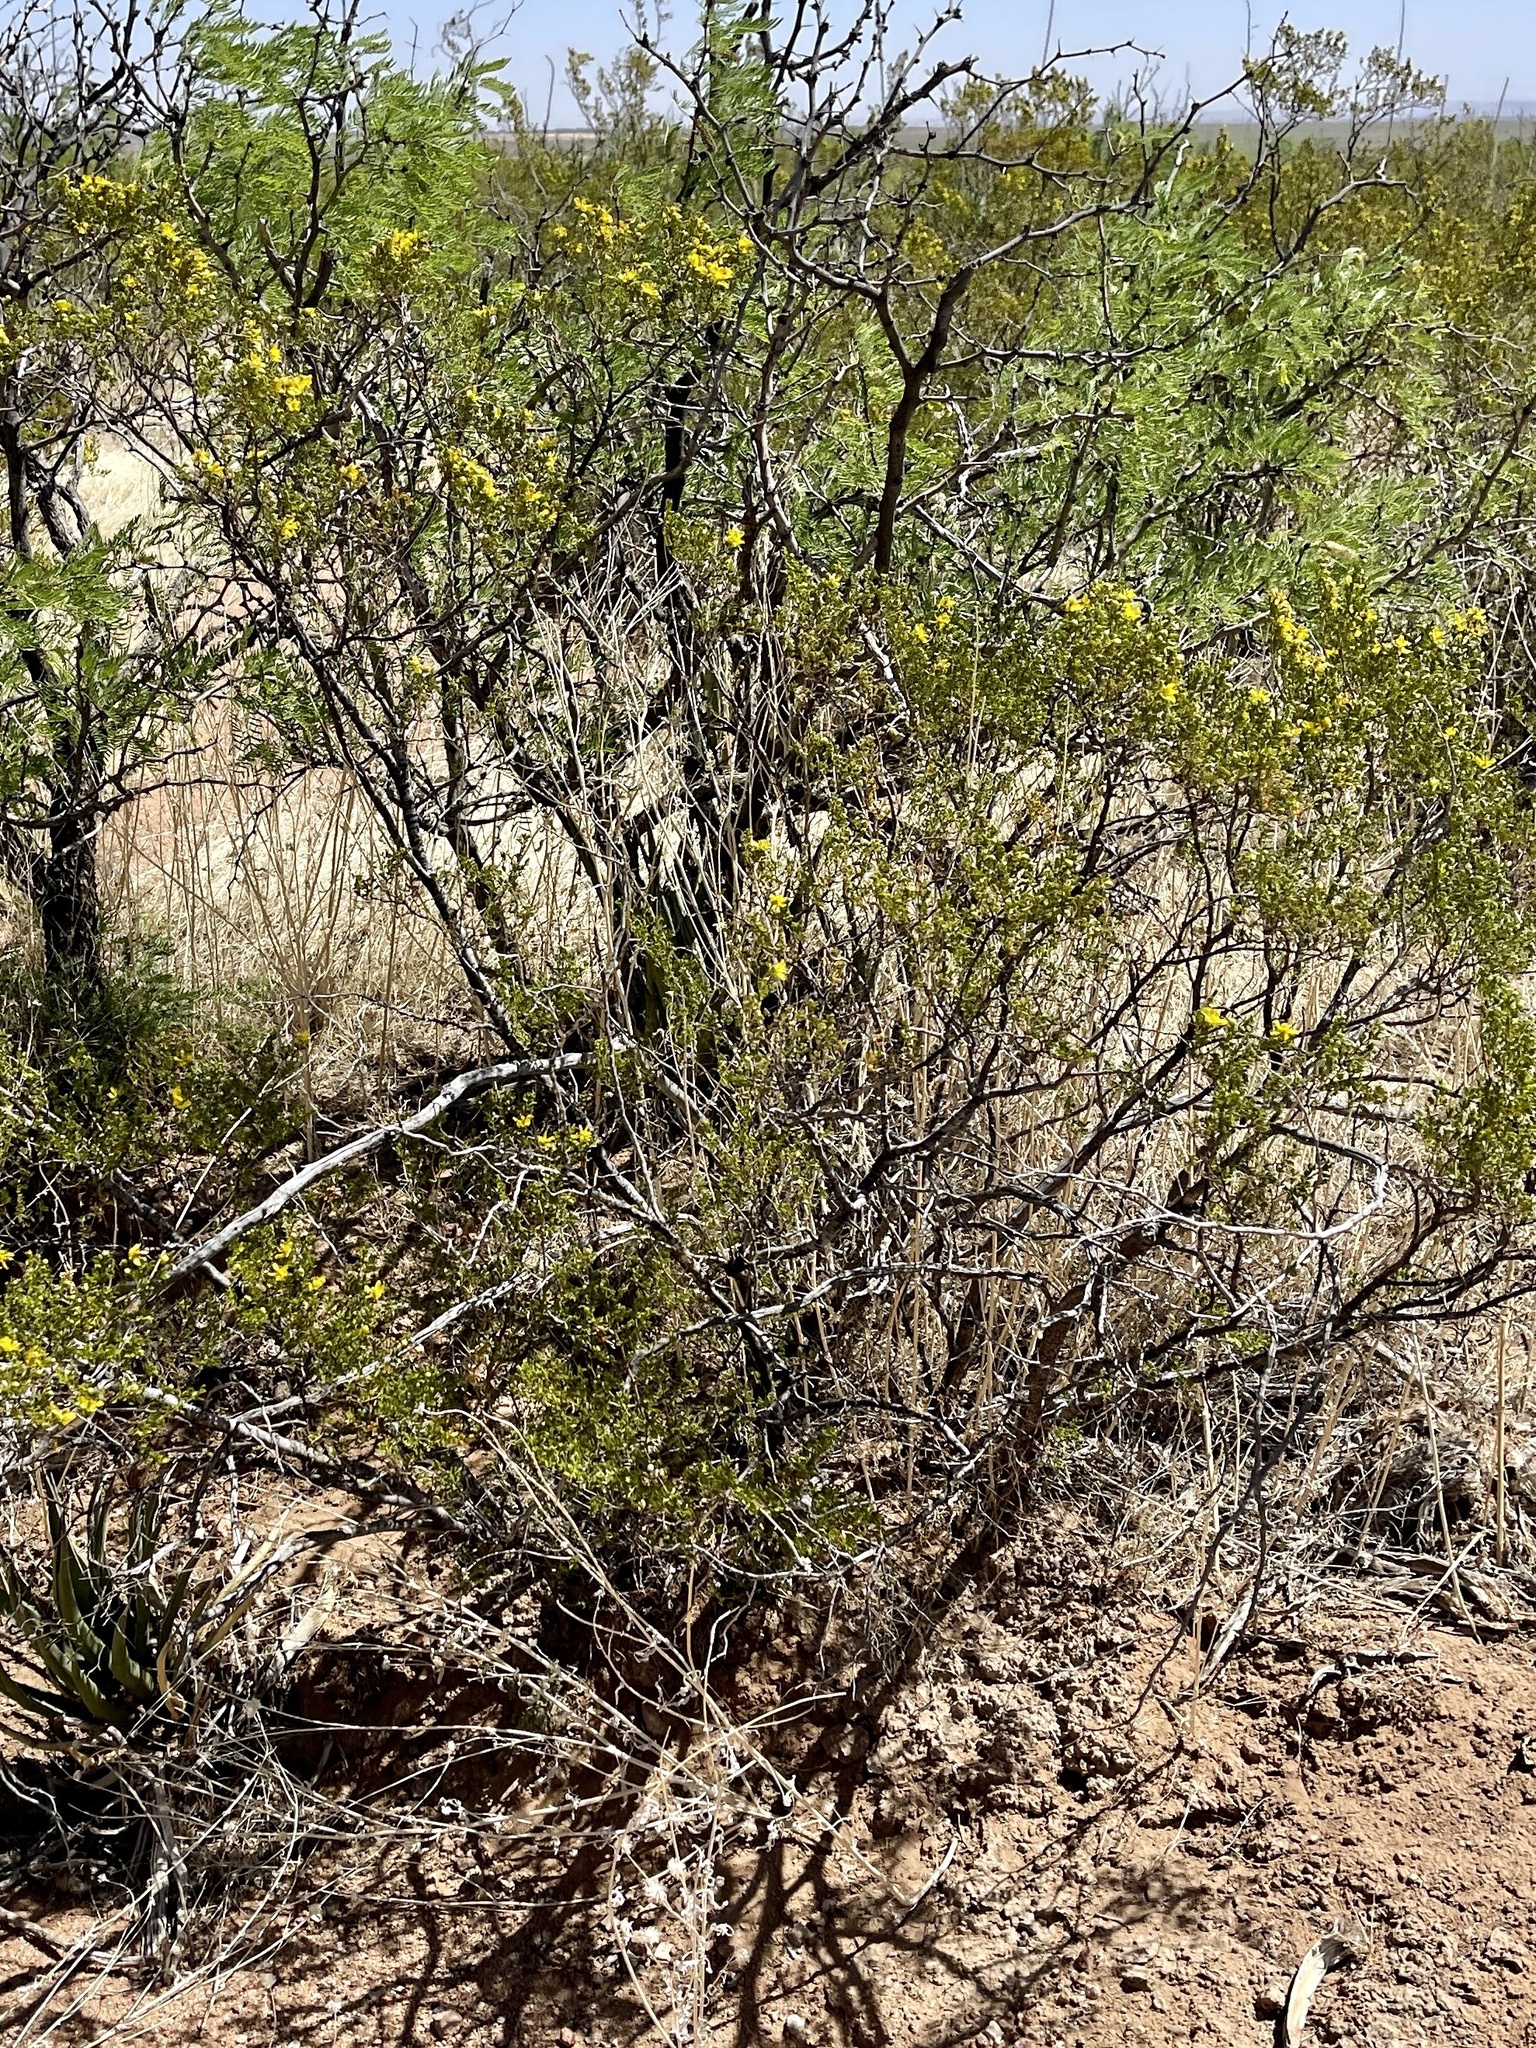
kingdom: Plantae
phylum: Tracheophyta
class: Magnoliopsida
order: Zygophyllales
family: Zygophyllaceae
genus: Larrea
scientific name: Larrea tridentata
